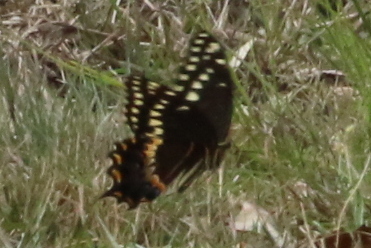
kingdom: Animalia
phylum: Arthropoda
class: Insecta
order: Lepidoptera
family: Papilionidae
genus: Papilio
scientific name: Papilio palamedes
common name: Palamedes swallowtail
